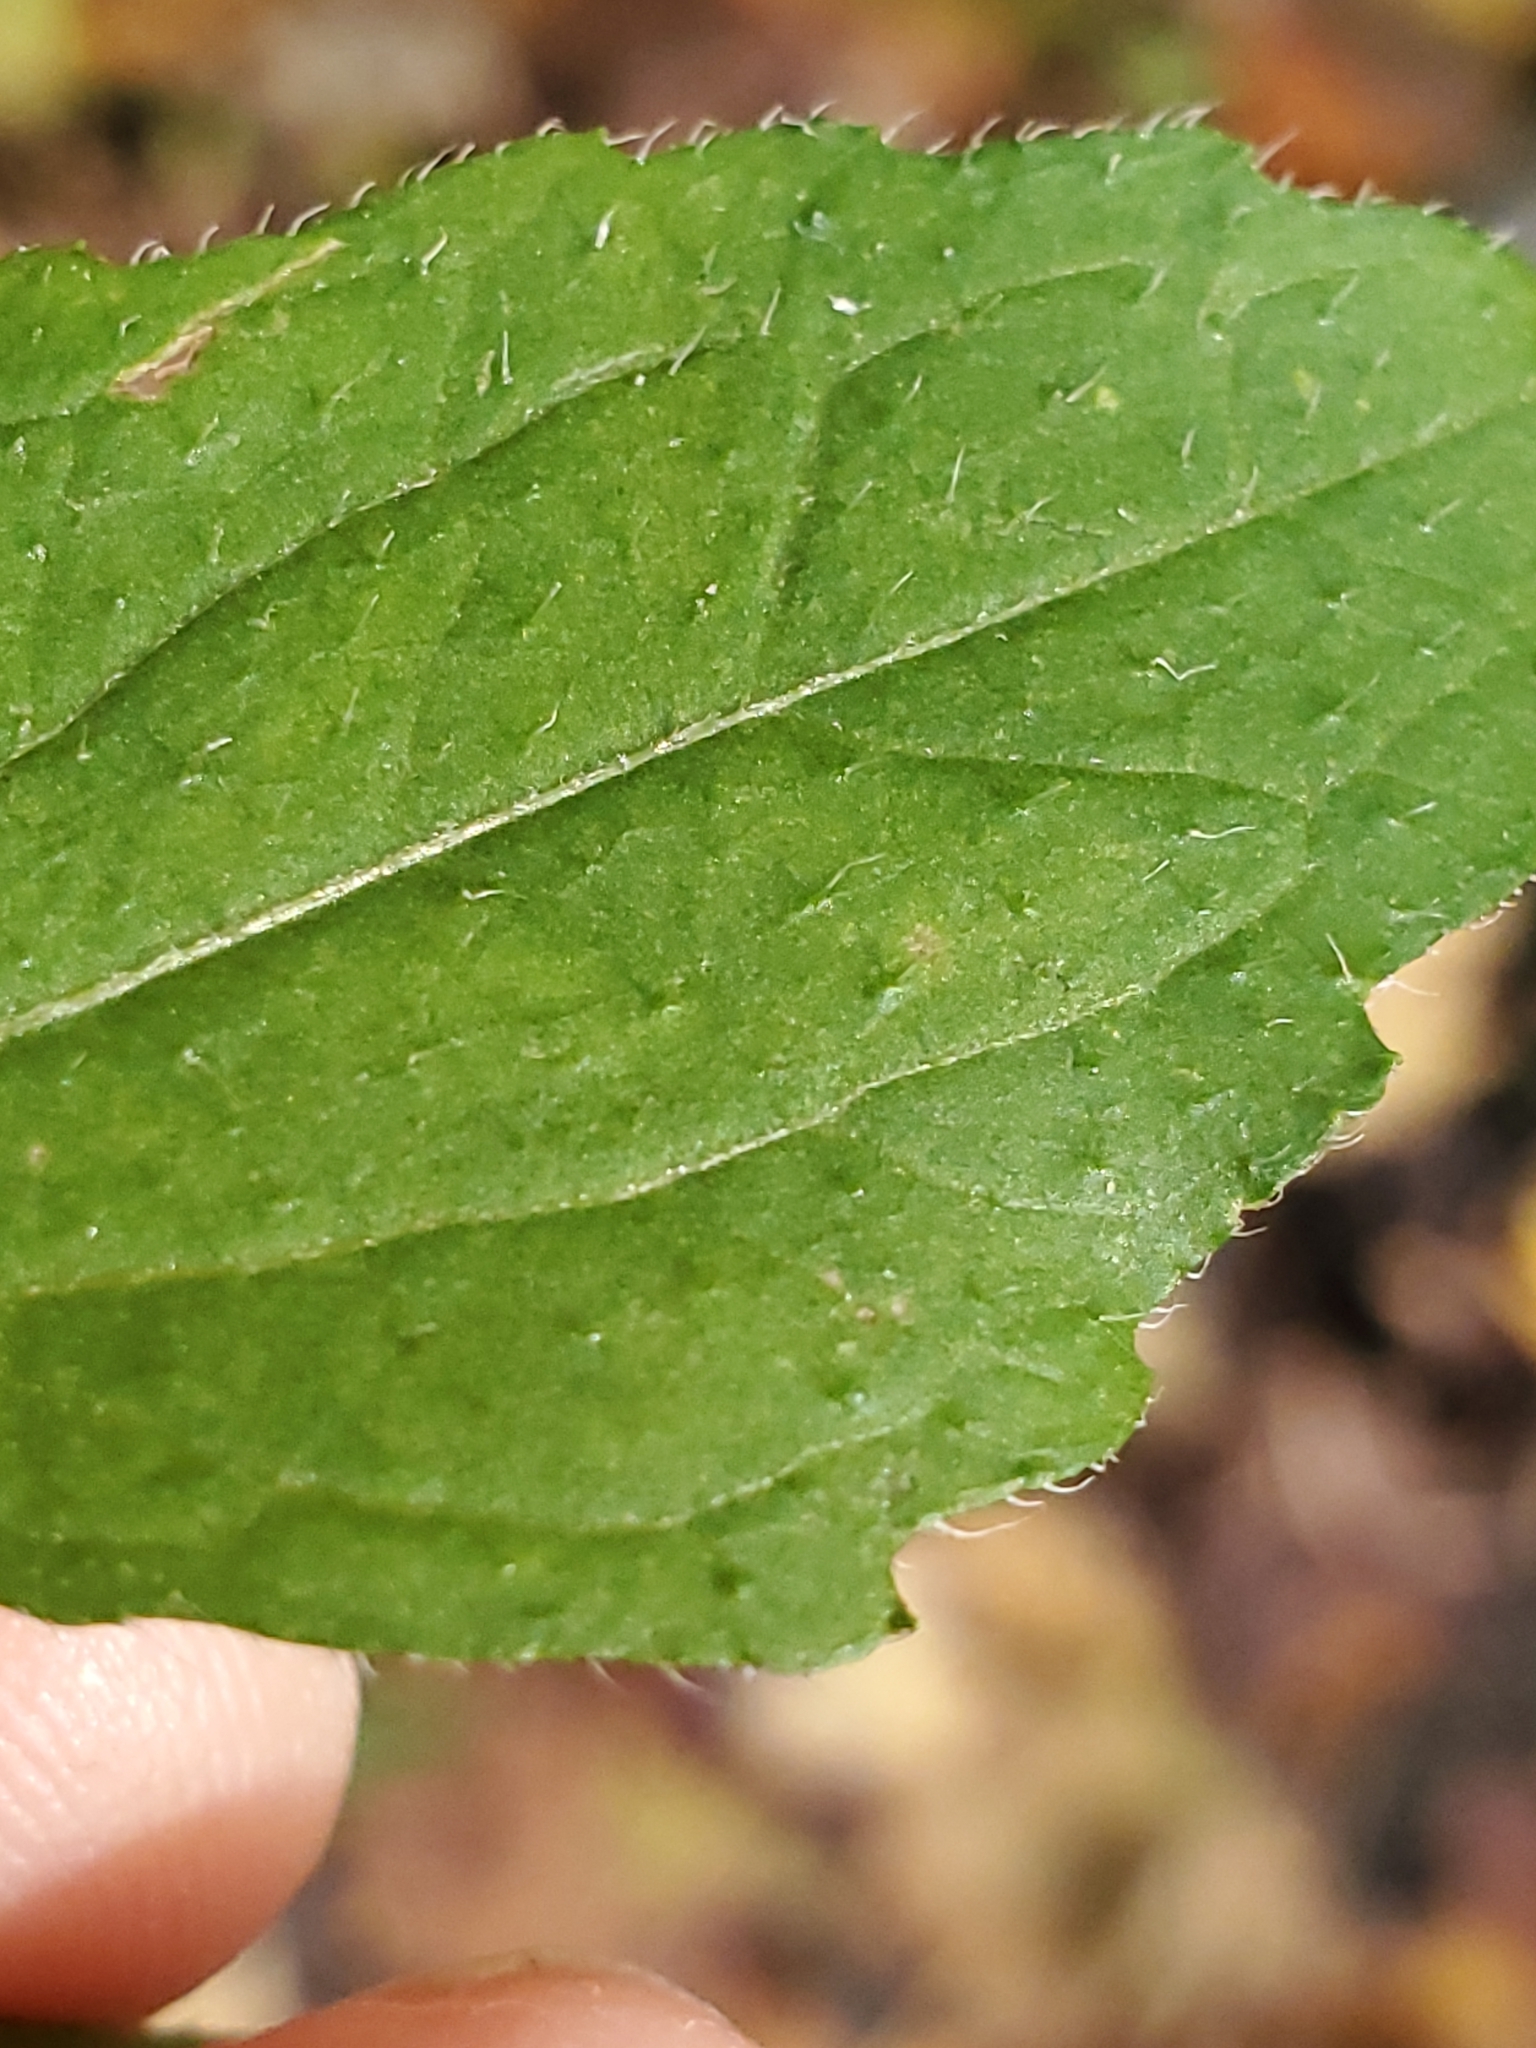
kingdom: Plantae
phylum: Tracheophyta
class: Magnoliopsida
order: Asterales
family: Asteraceae
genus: Galinsoga
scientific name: Galinsoga quadriradiata
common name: Shaggy soldier
